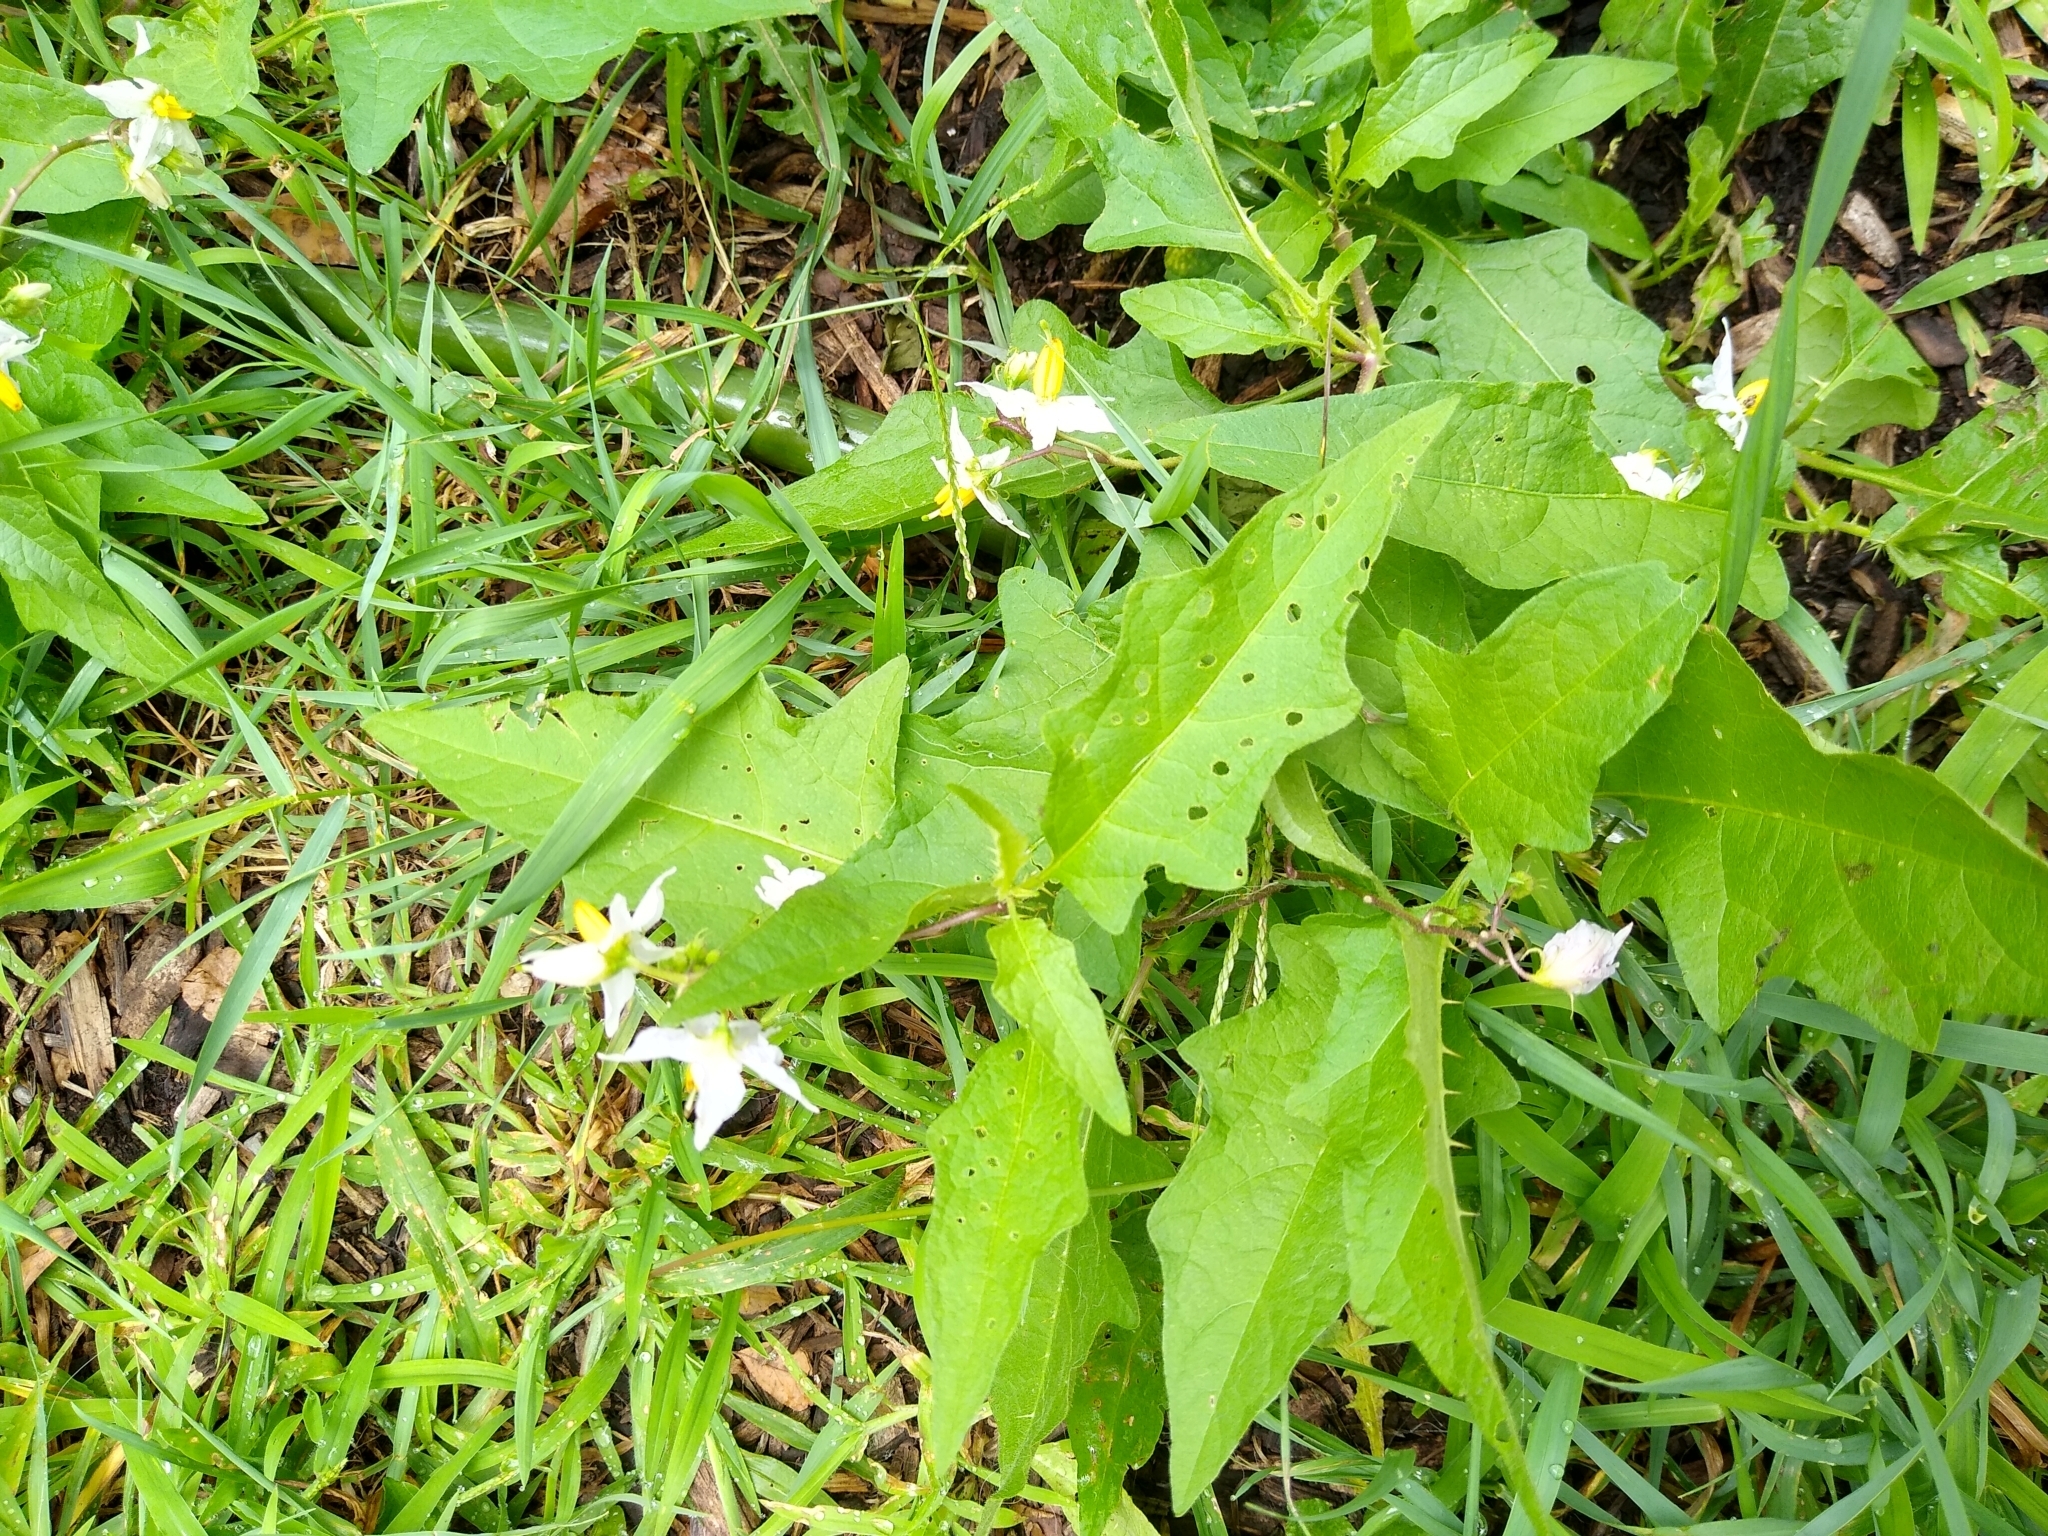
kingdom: Plantae
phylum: Tracheophyta
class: Magnoliopsida
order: Solanales
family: Solanaceae
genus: Solanum
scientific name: Solanum carolinense
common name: Horse-nettle
